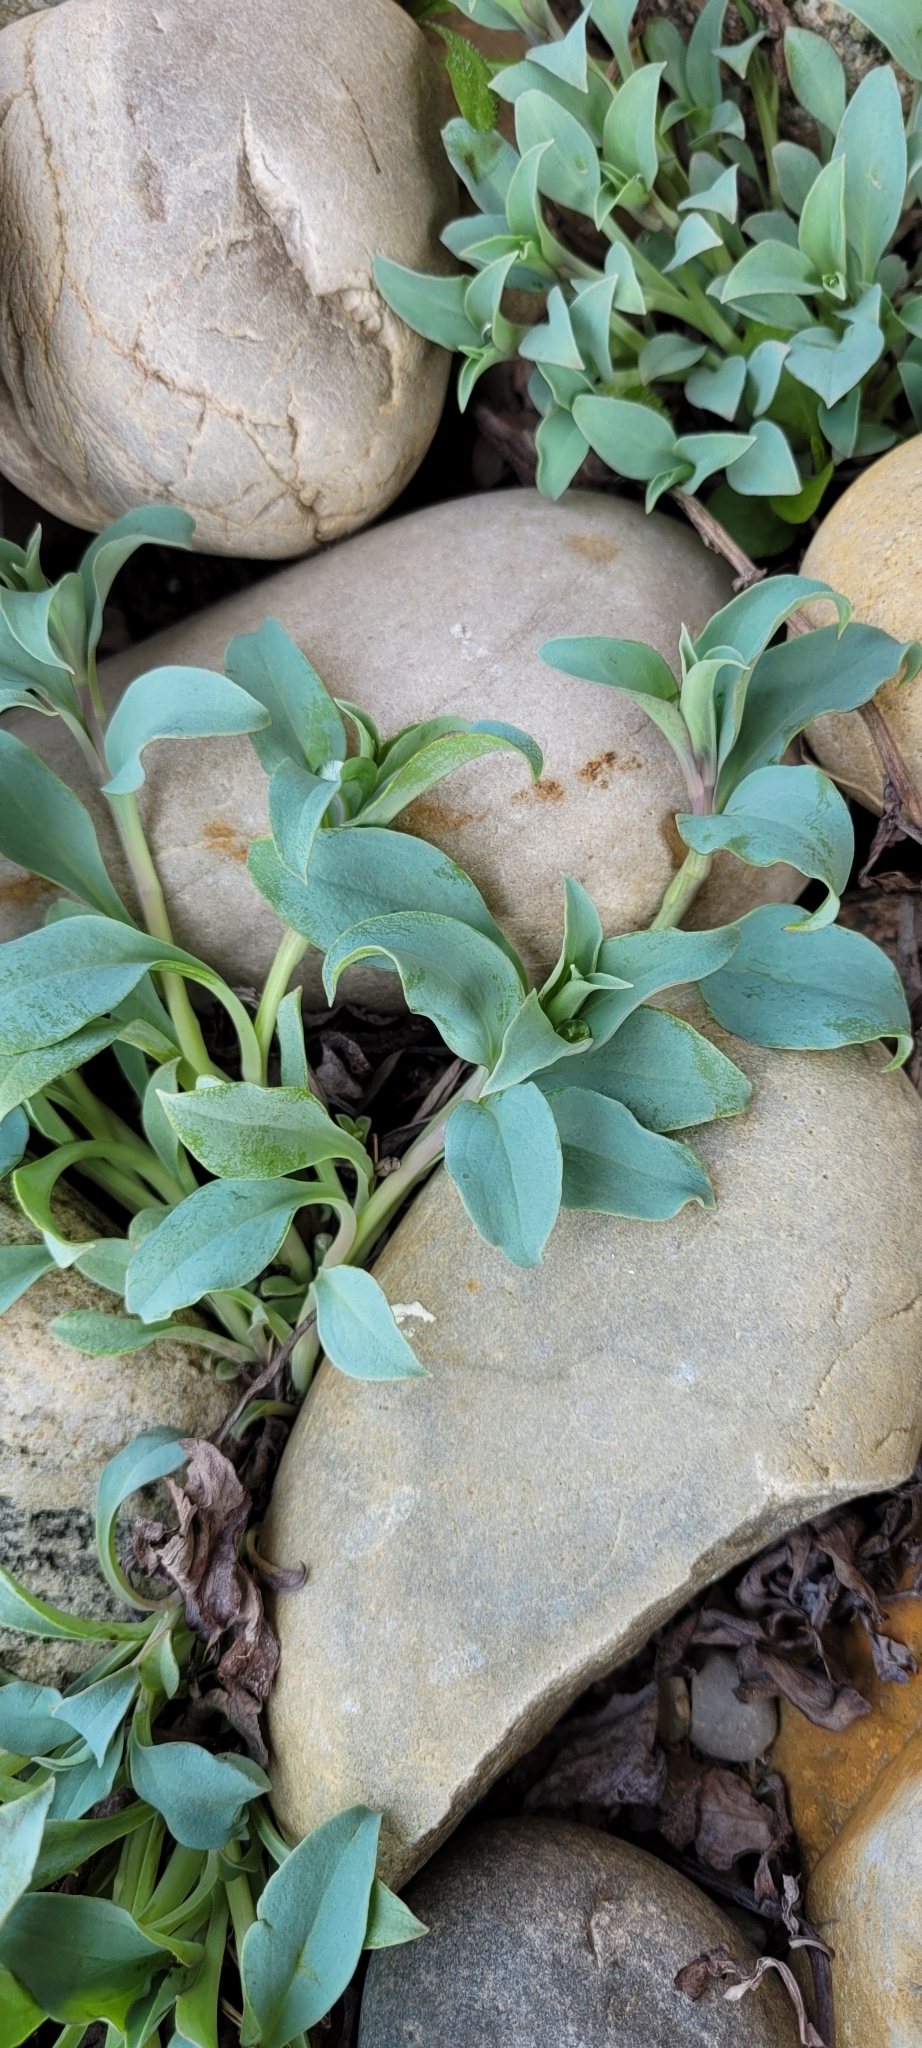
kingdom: Plantae
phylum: Tracheophyta
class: Magnoliopsida
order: Boraginales
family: Boraginaceae
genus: Mertensia
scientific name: Mertensia maritima
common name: Oysterplant
